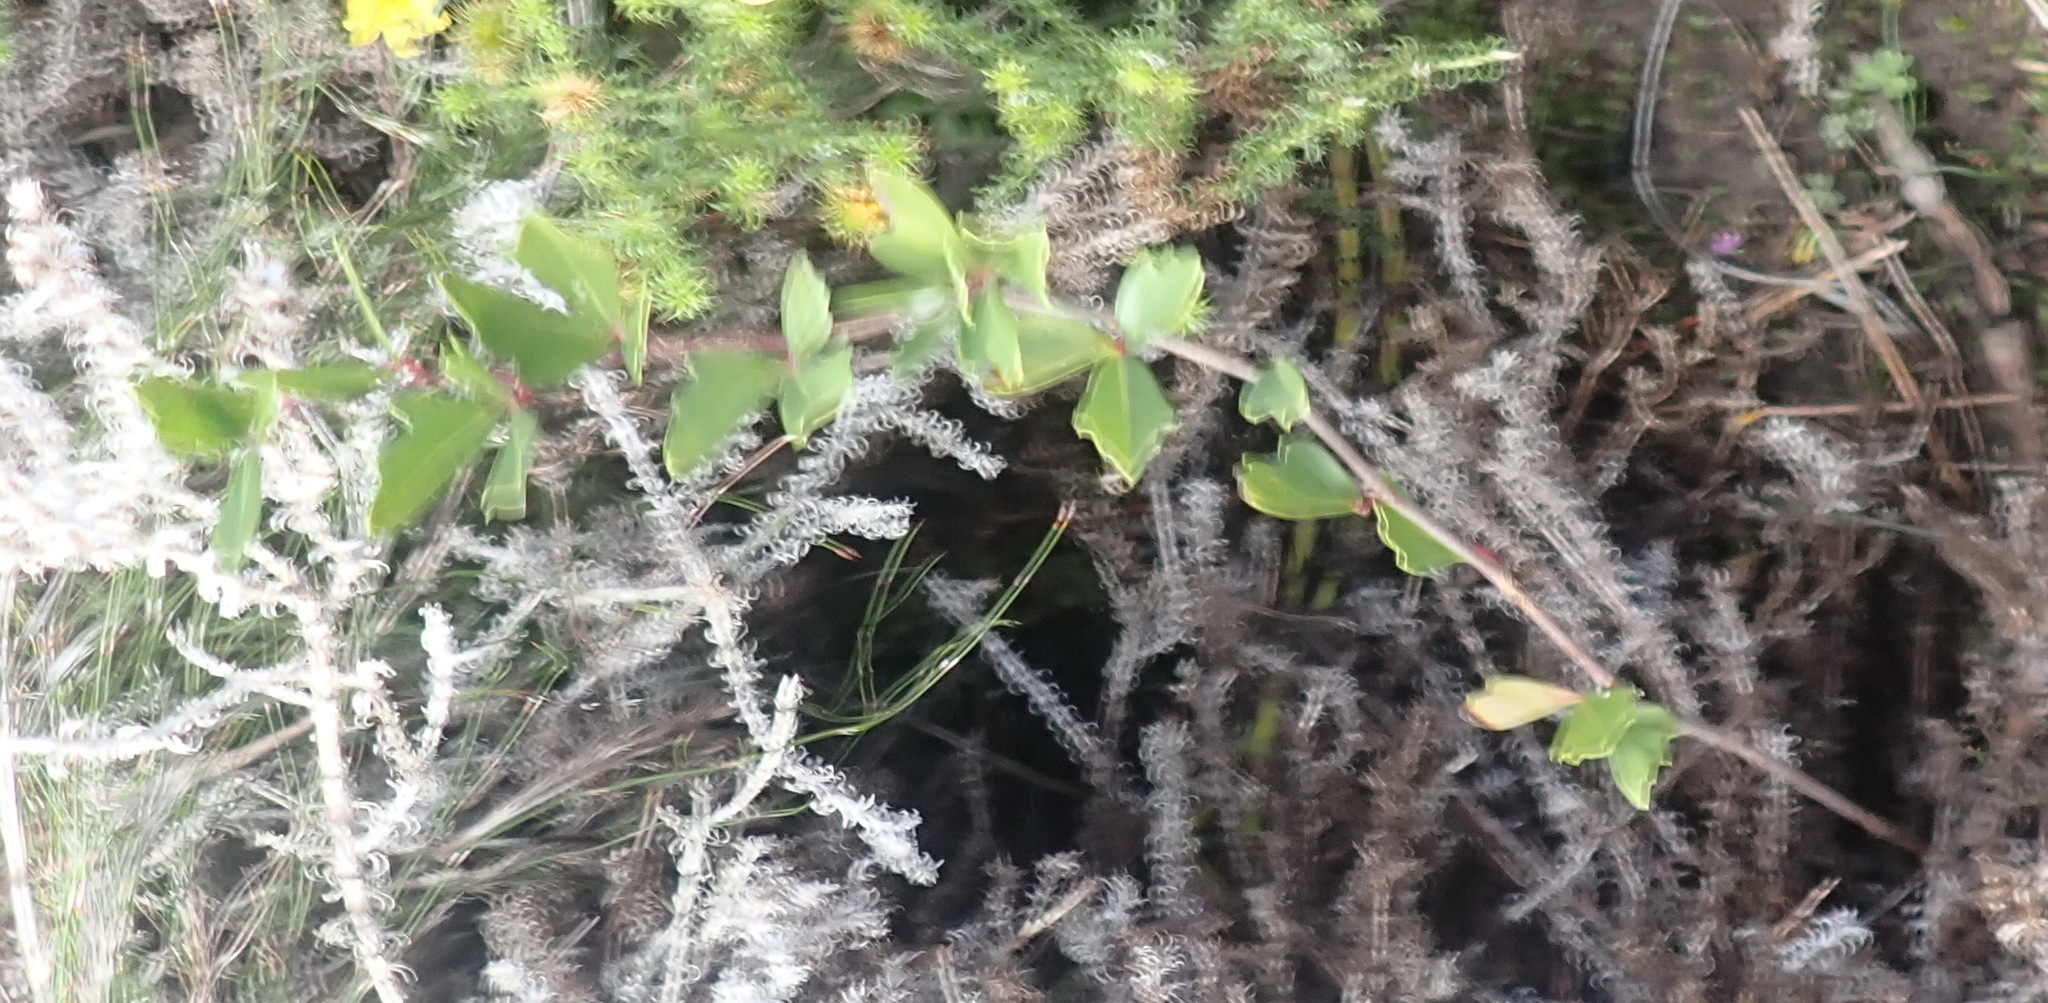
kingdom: Plantae
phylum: Tracheophyta
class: Magnoliopsida
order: Vitales
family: Vitaceae
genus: Rhoicissus
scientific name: Rhoicissus tridentata
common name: Common forest grape
